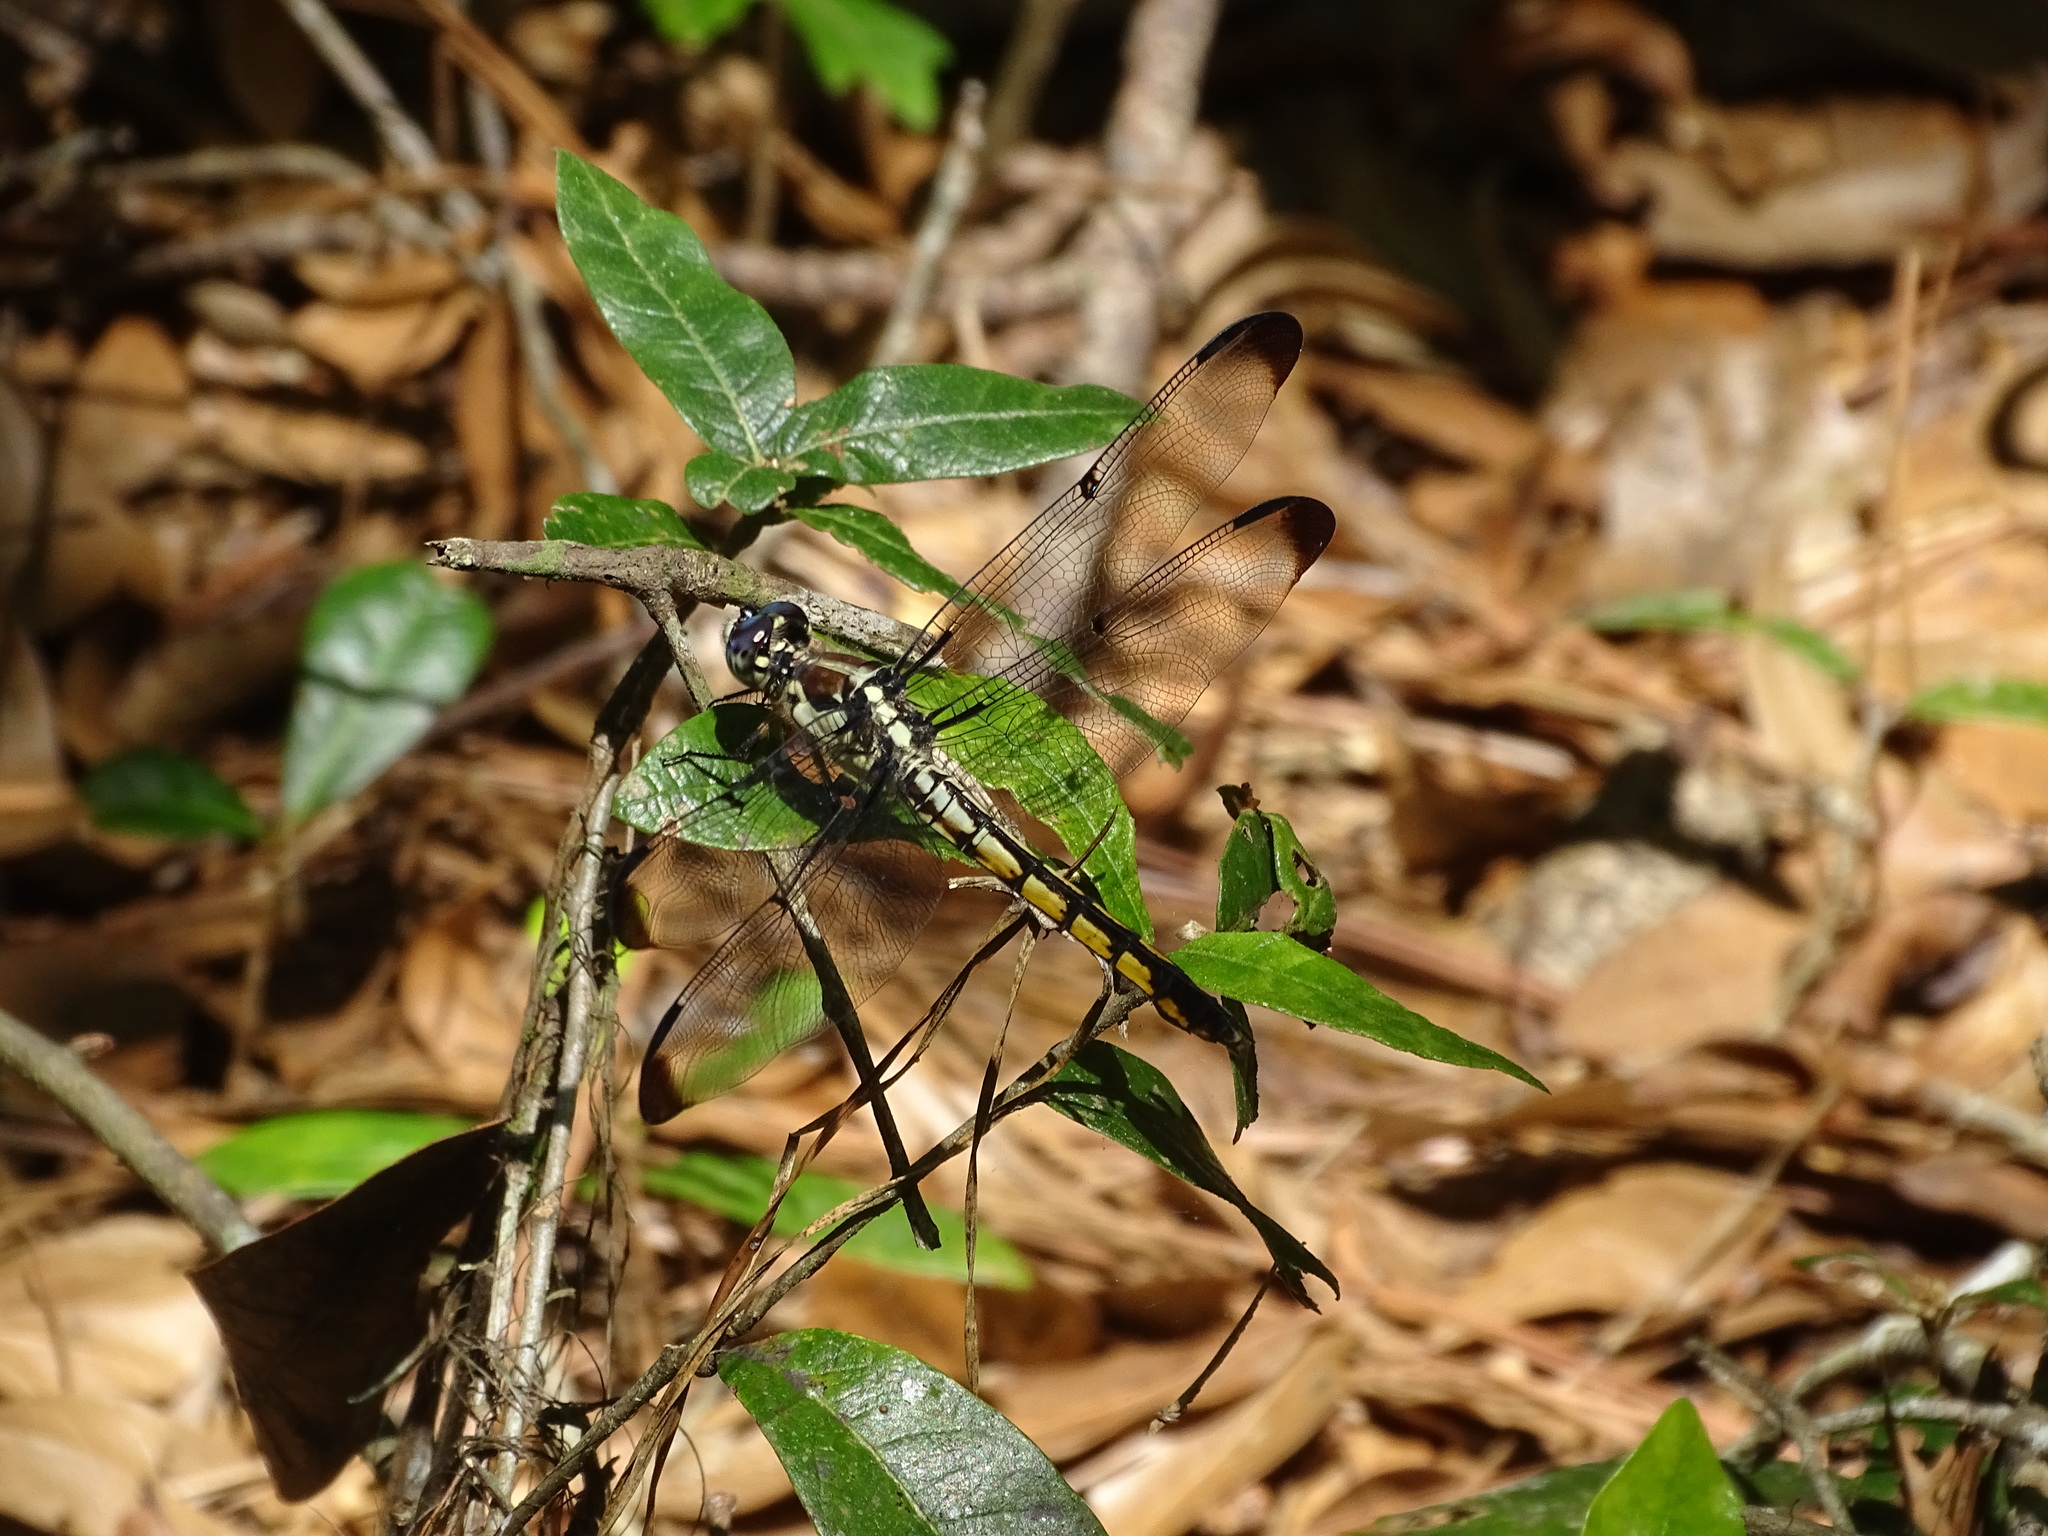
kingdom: Animalia
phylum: Arthropoda
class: Insecta
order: Odonata
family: Libellulidae
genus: Libellula
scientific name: Libellula vibrans
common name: Great blue skimmer
